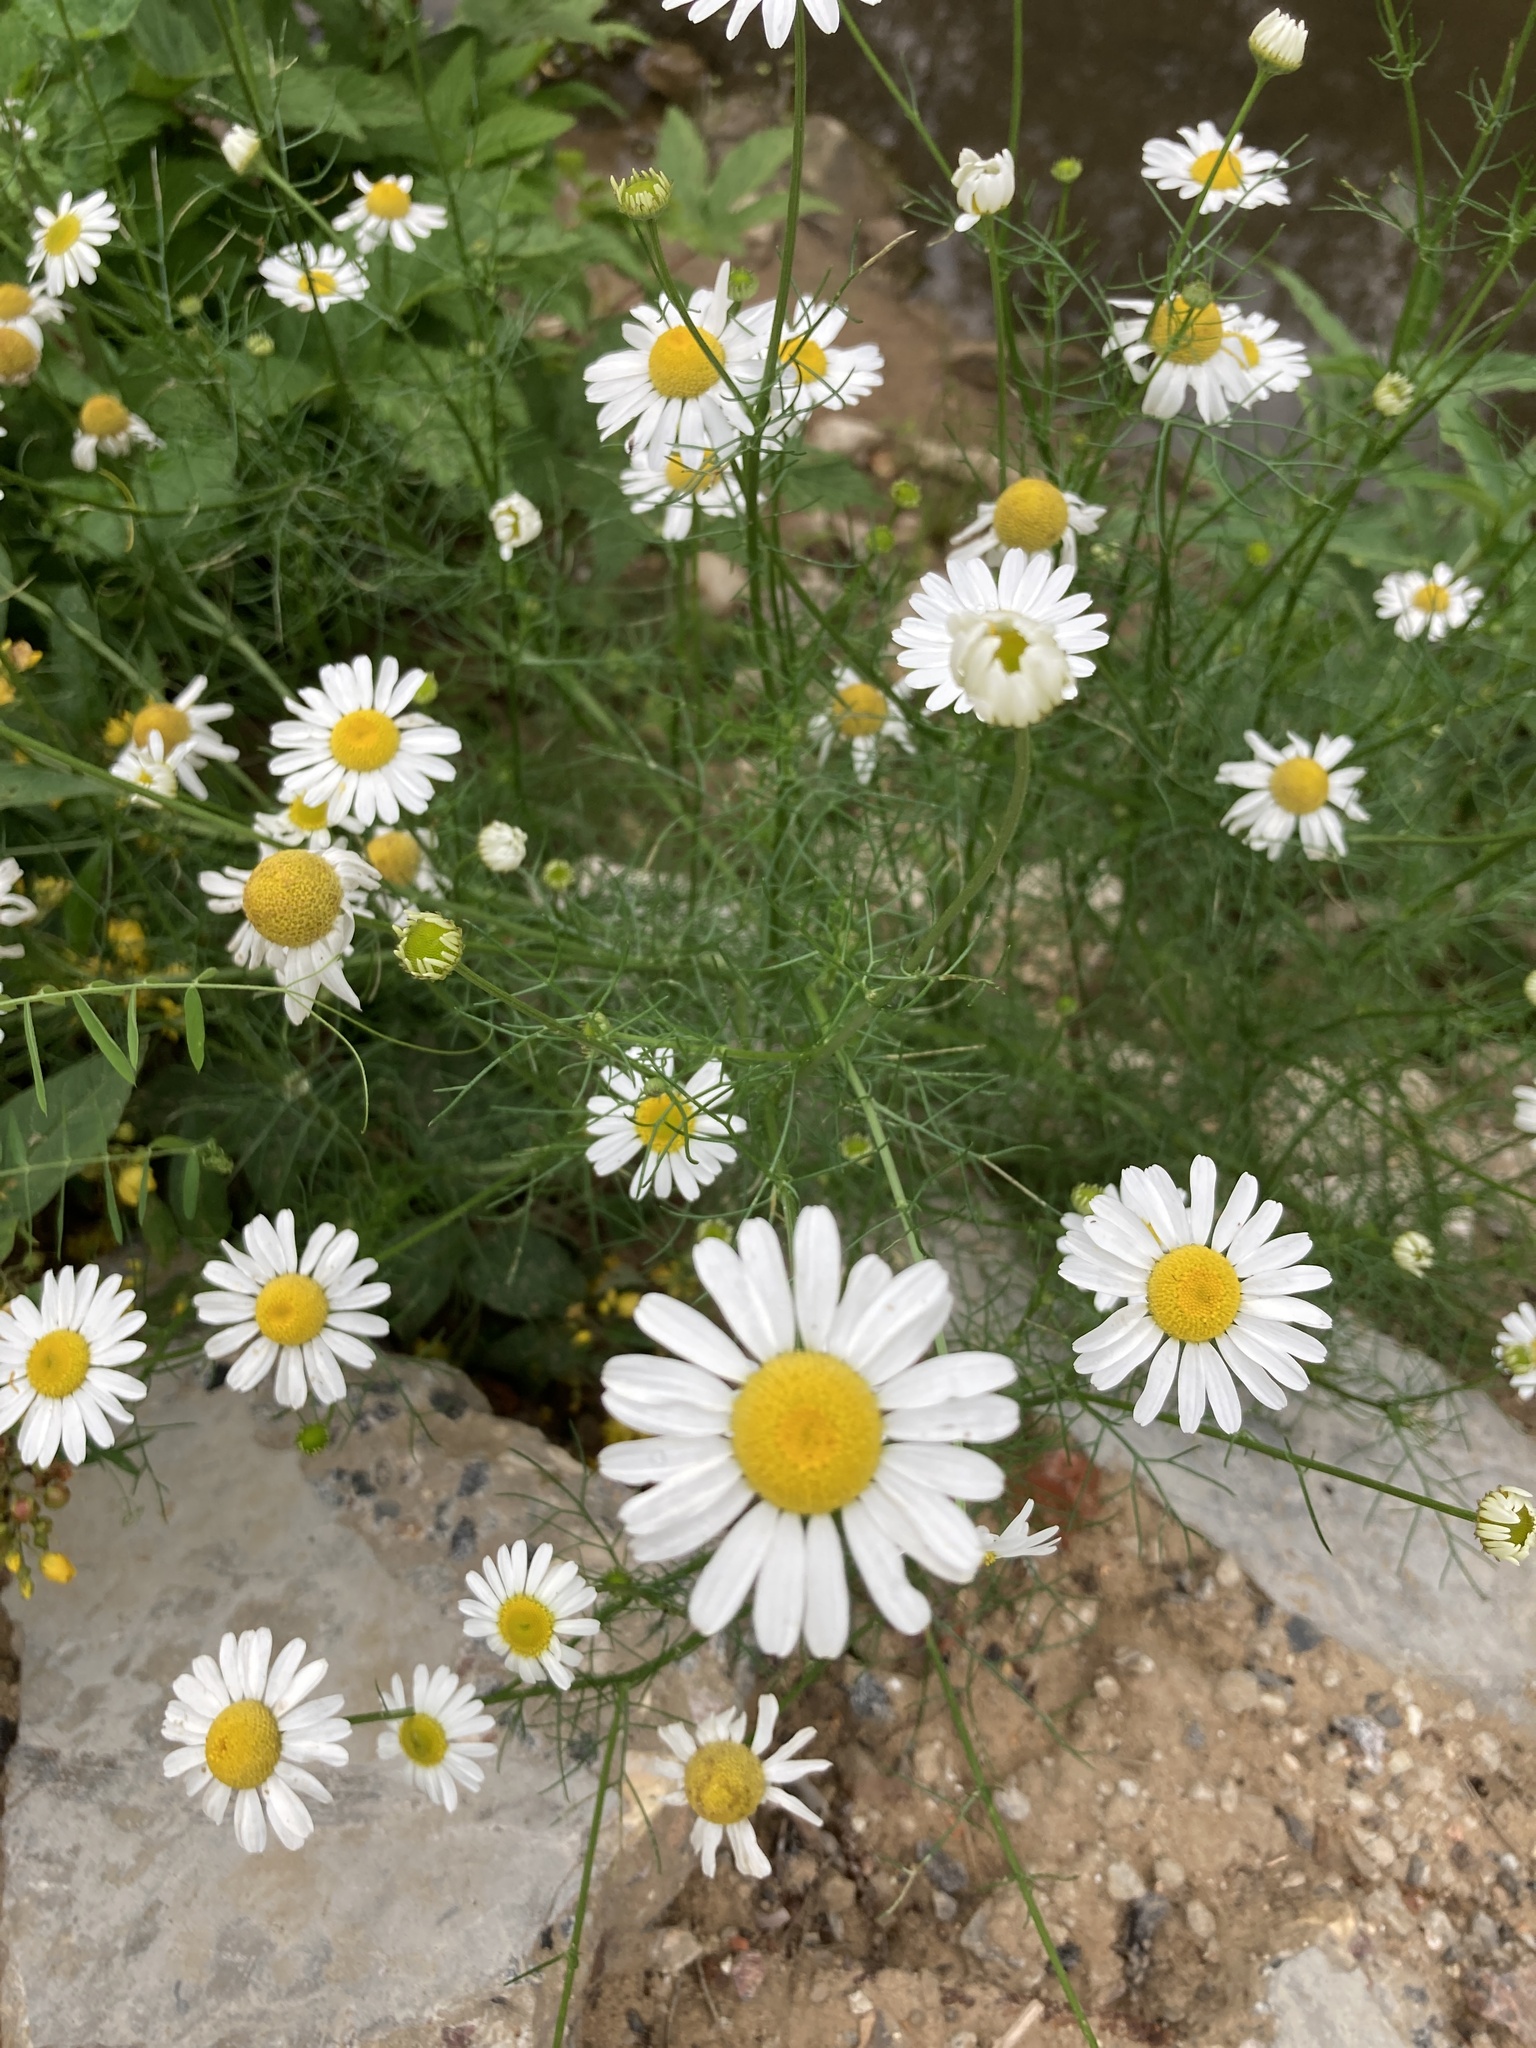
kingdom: Plantae
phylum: Tracheophyta
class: Magnoliopsida
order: Asterales
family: Asteraceae
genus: Tripleurospermum
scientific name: Tripleurospermum inodorum
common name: Scentless mayweed
